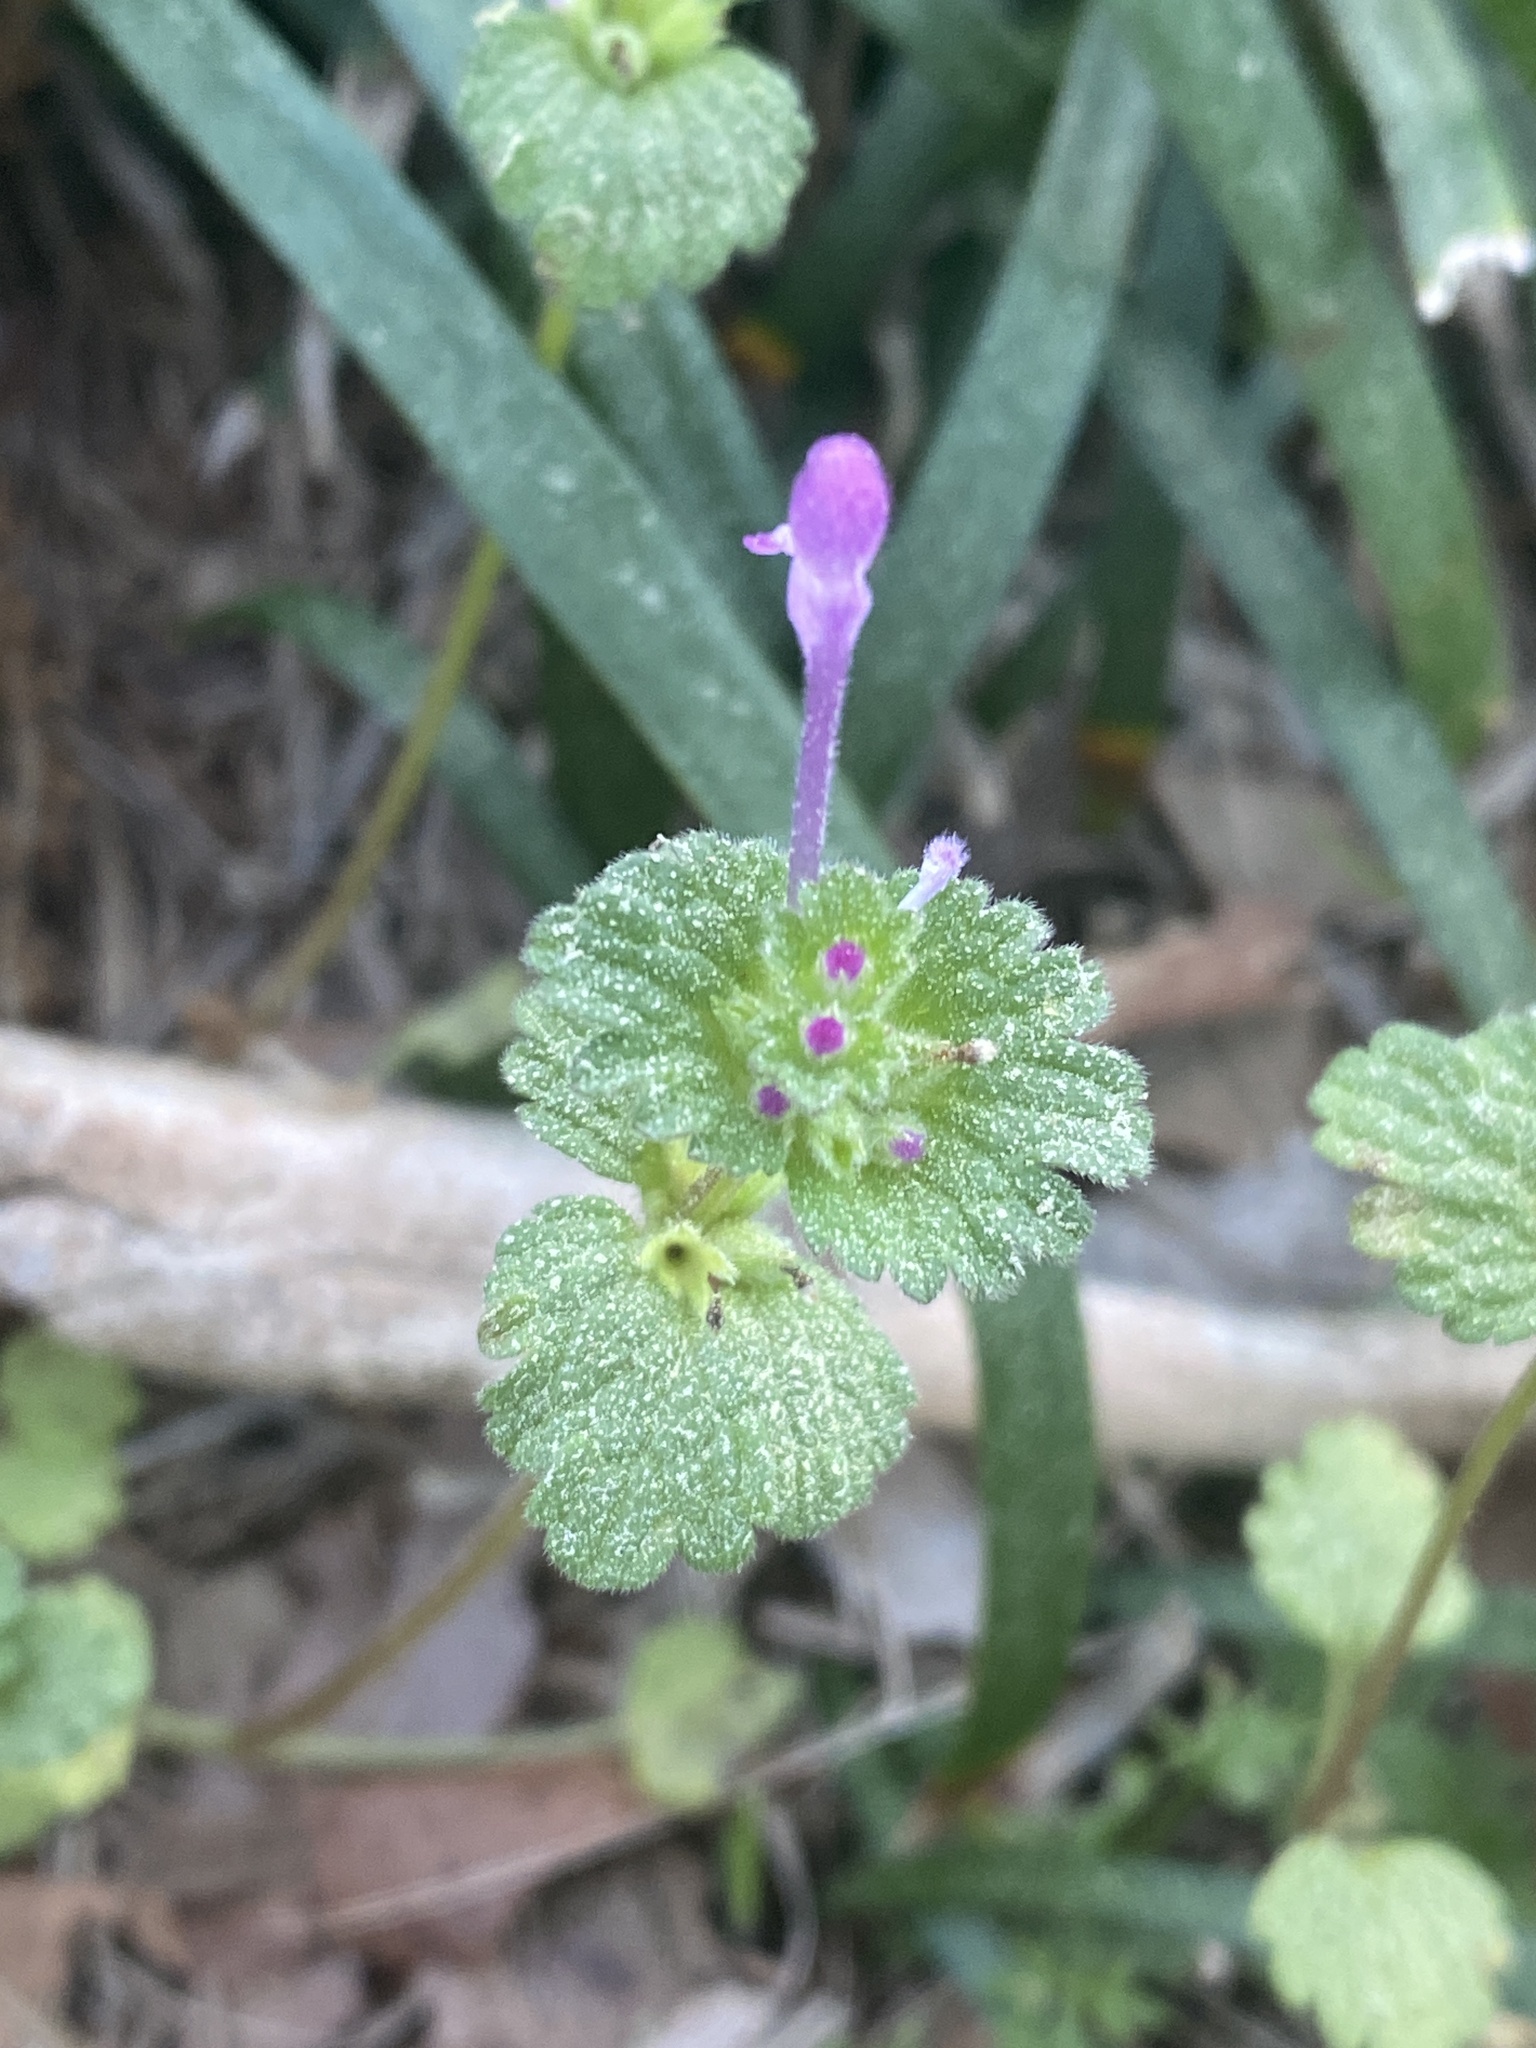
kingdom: Plantae
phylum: Tracheophyta
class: Magnoliopsida
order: Lamiales
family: Lamiaceae
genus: Lamium
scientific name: Lamium amplexicaule
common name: Henbit dead-nettle
